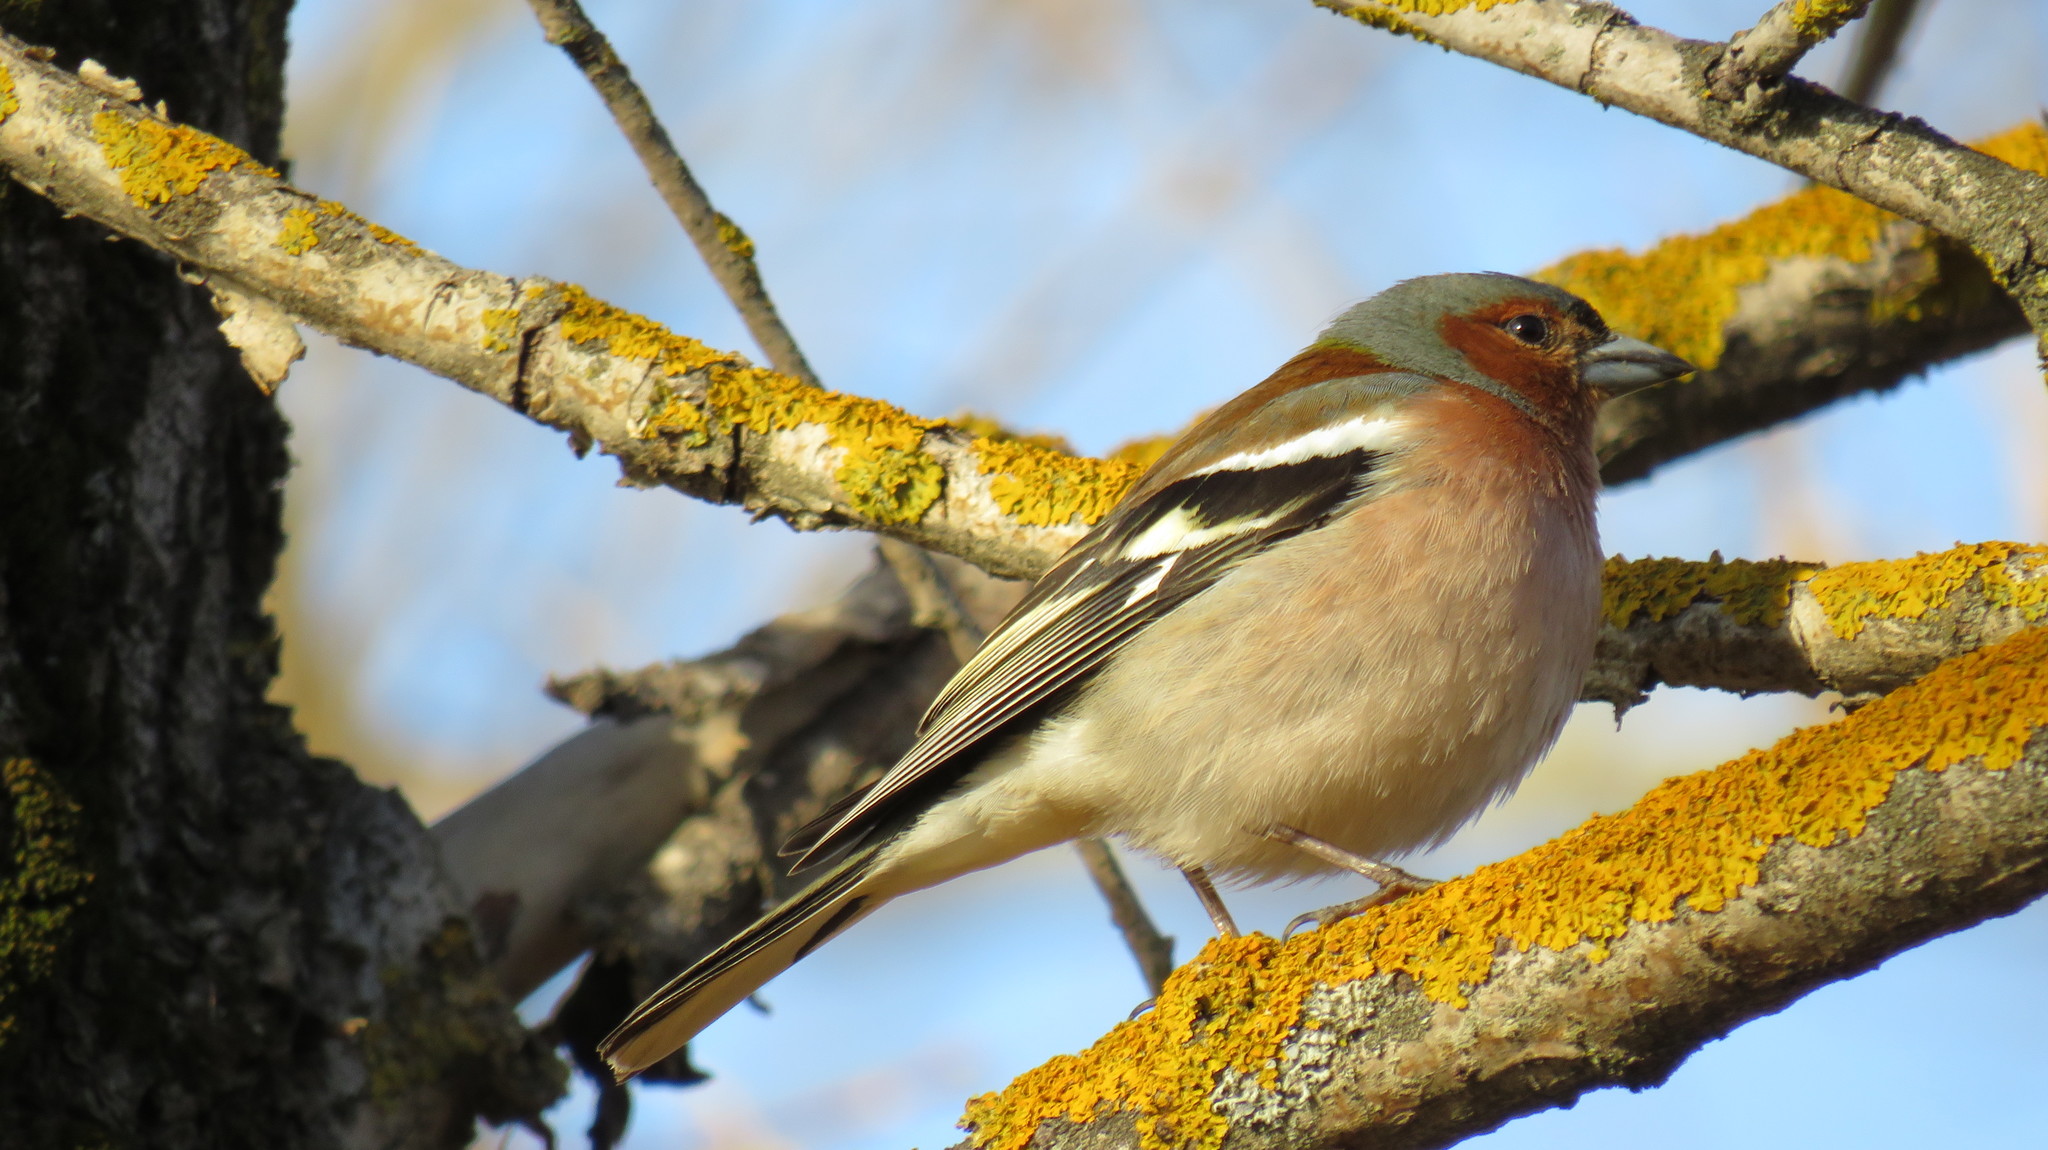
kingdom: Animalia
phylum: Chordata
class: Aves
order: Passeriformes
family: Fringillidae
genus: Fringilla
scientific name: Fringilla coelebs
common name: Common chaffinch
